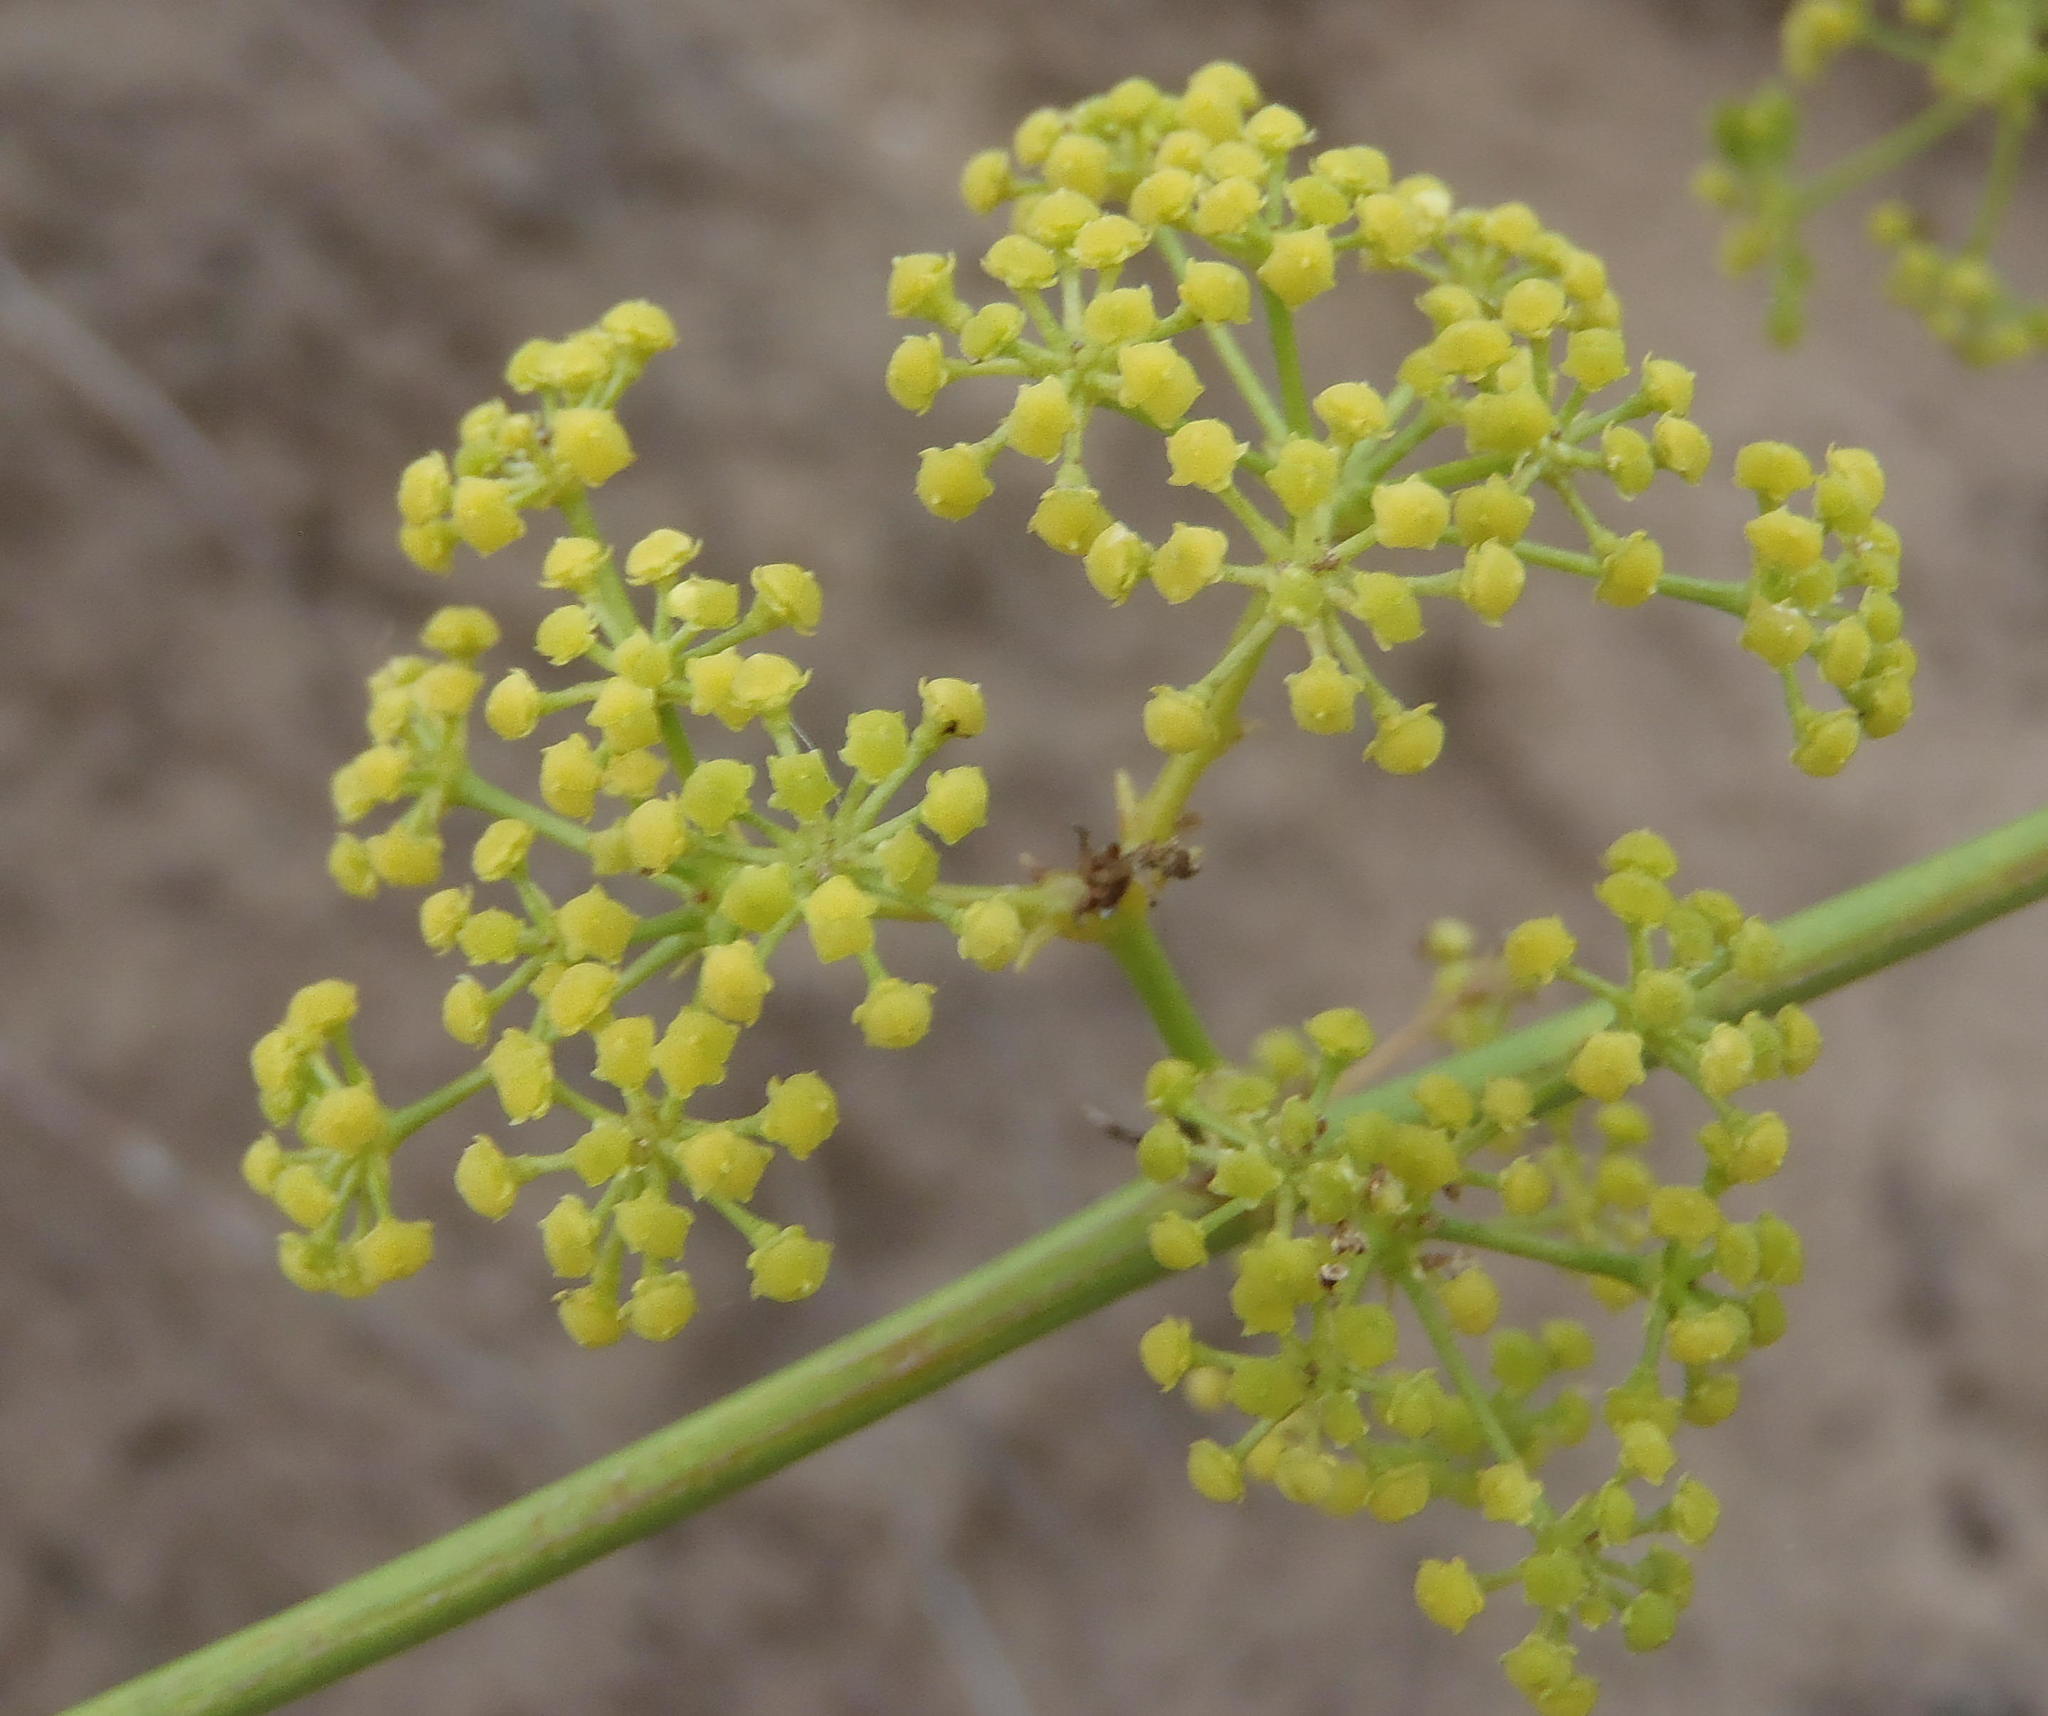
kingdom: Plantae
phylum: Tracheophyta
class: Magnoliopsida
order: Apiales
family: Apiaceae
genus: Anginon
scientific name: Anginon difforme
